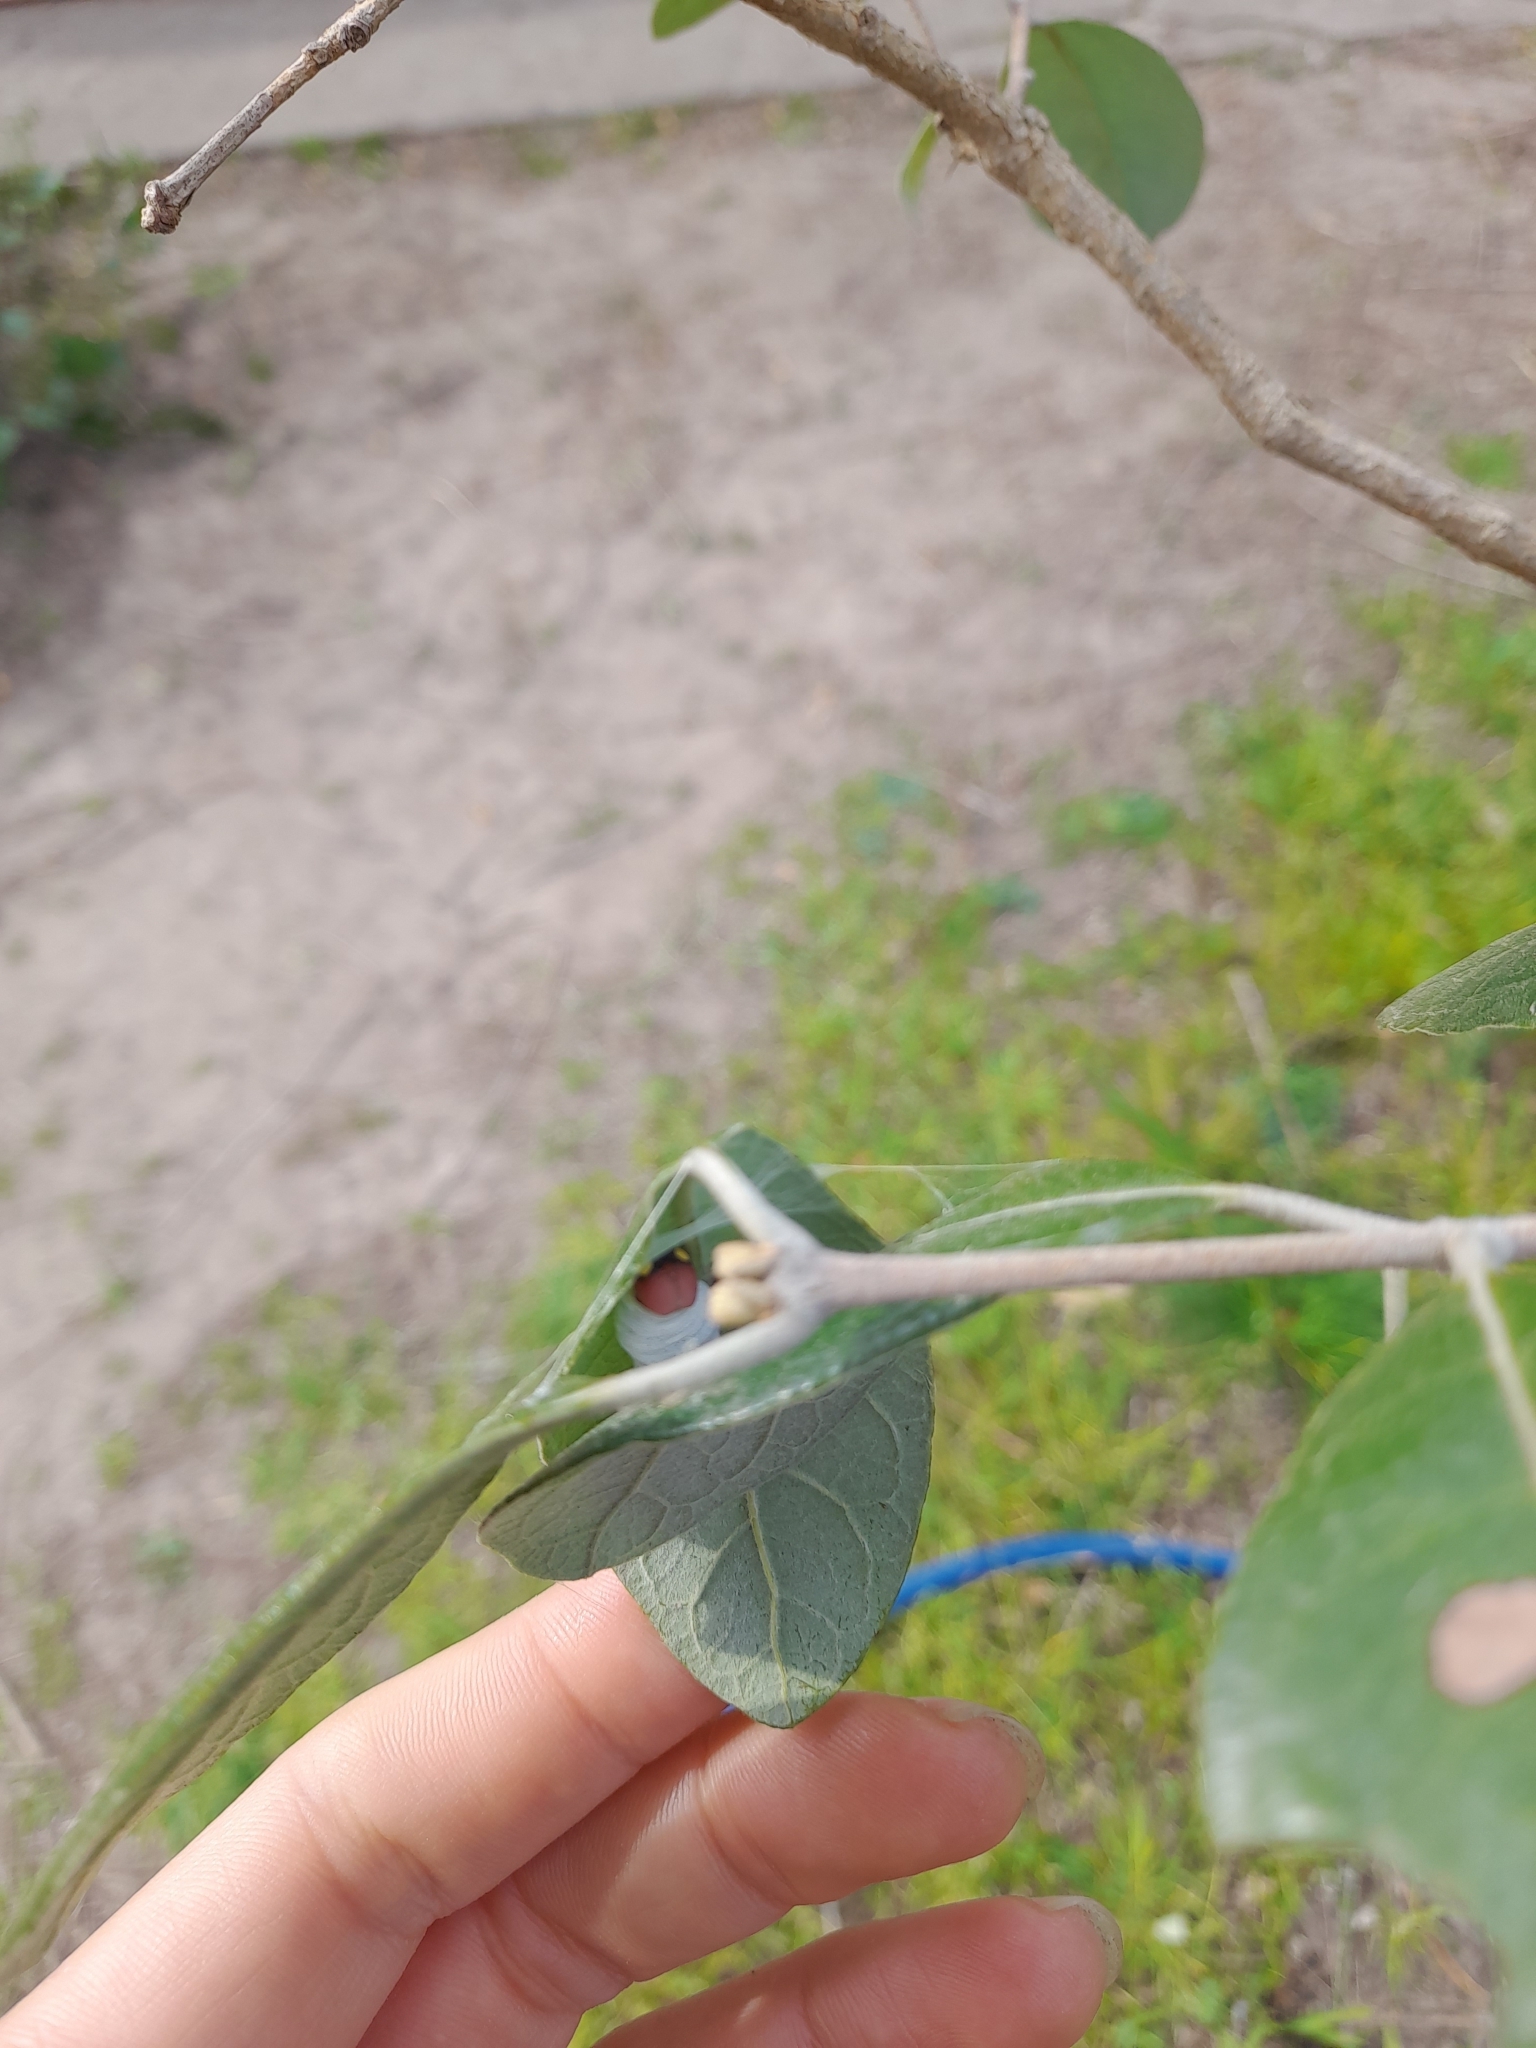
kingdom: Animalia
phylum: Arthropoda
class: Insecta
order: Lepidoptera
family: Hesperiidae
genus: Phocides
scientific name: Phocides polybius
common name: Guava skipper
